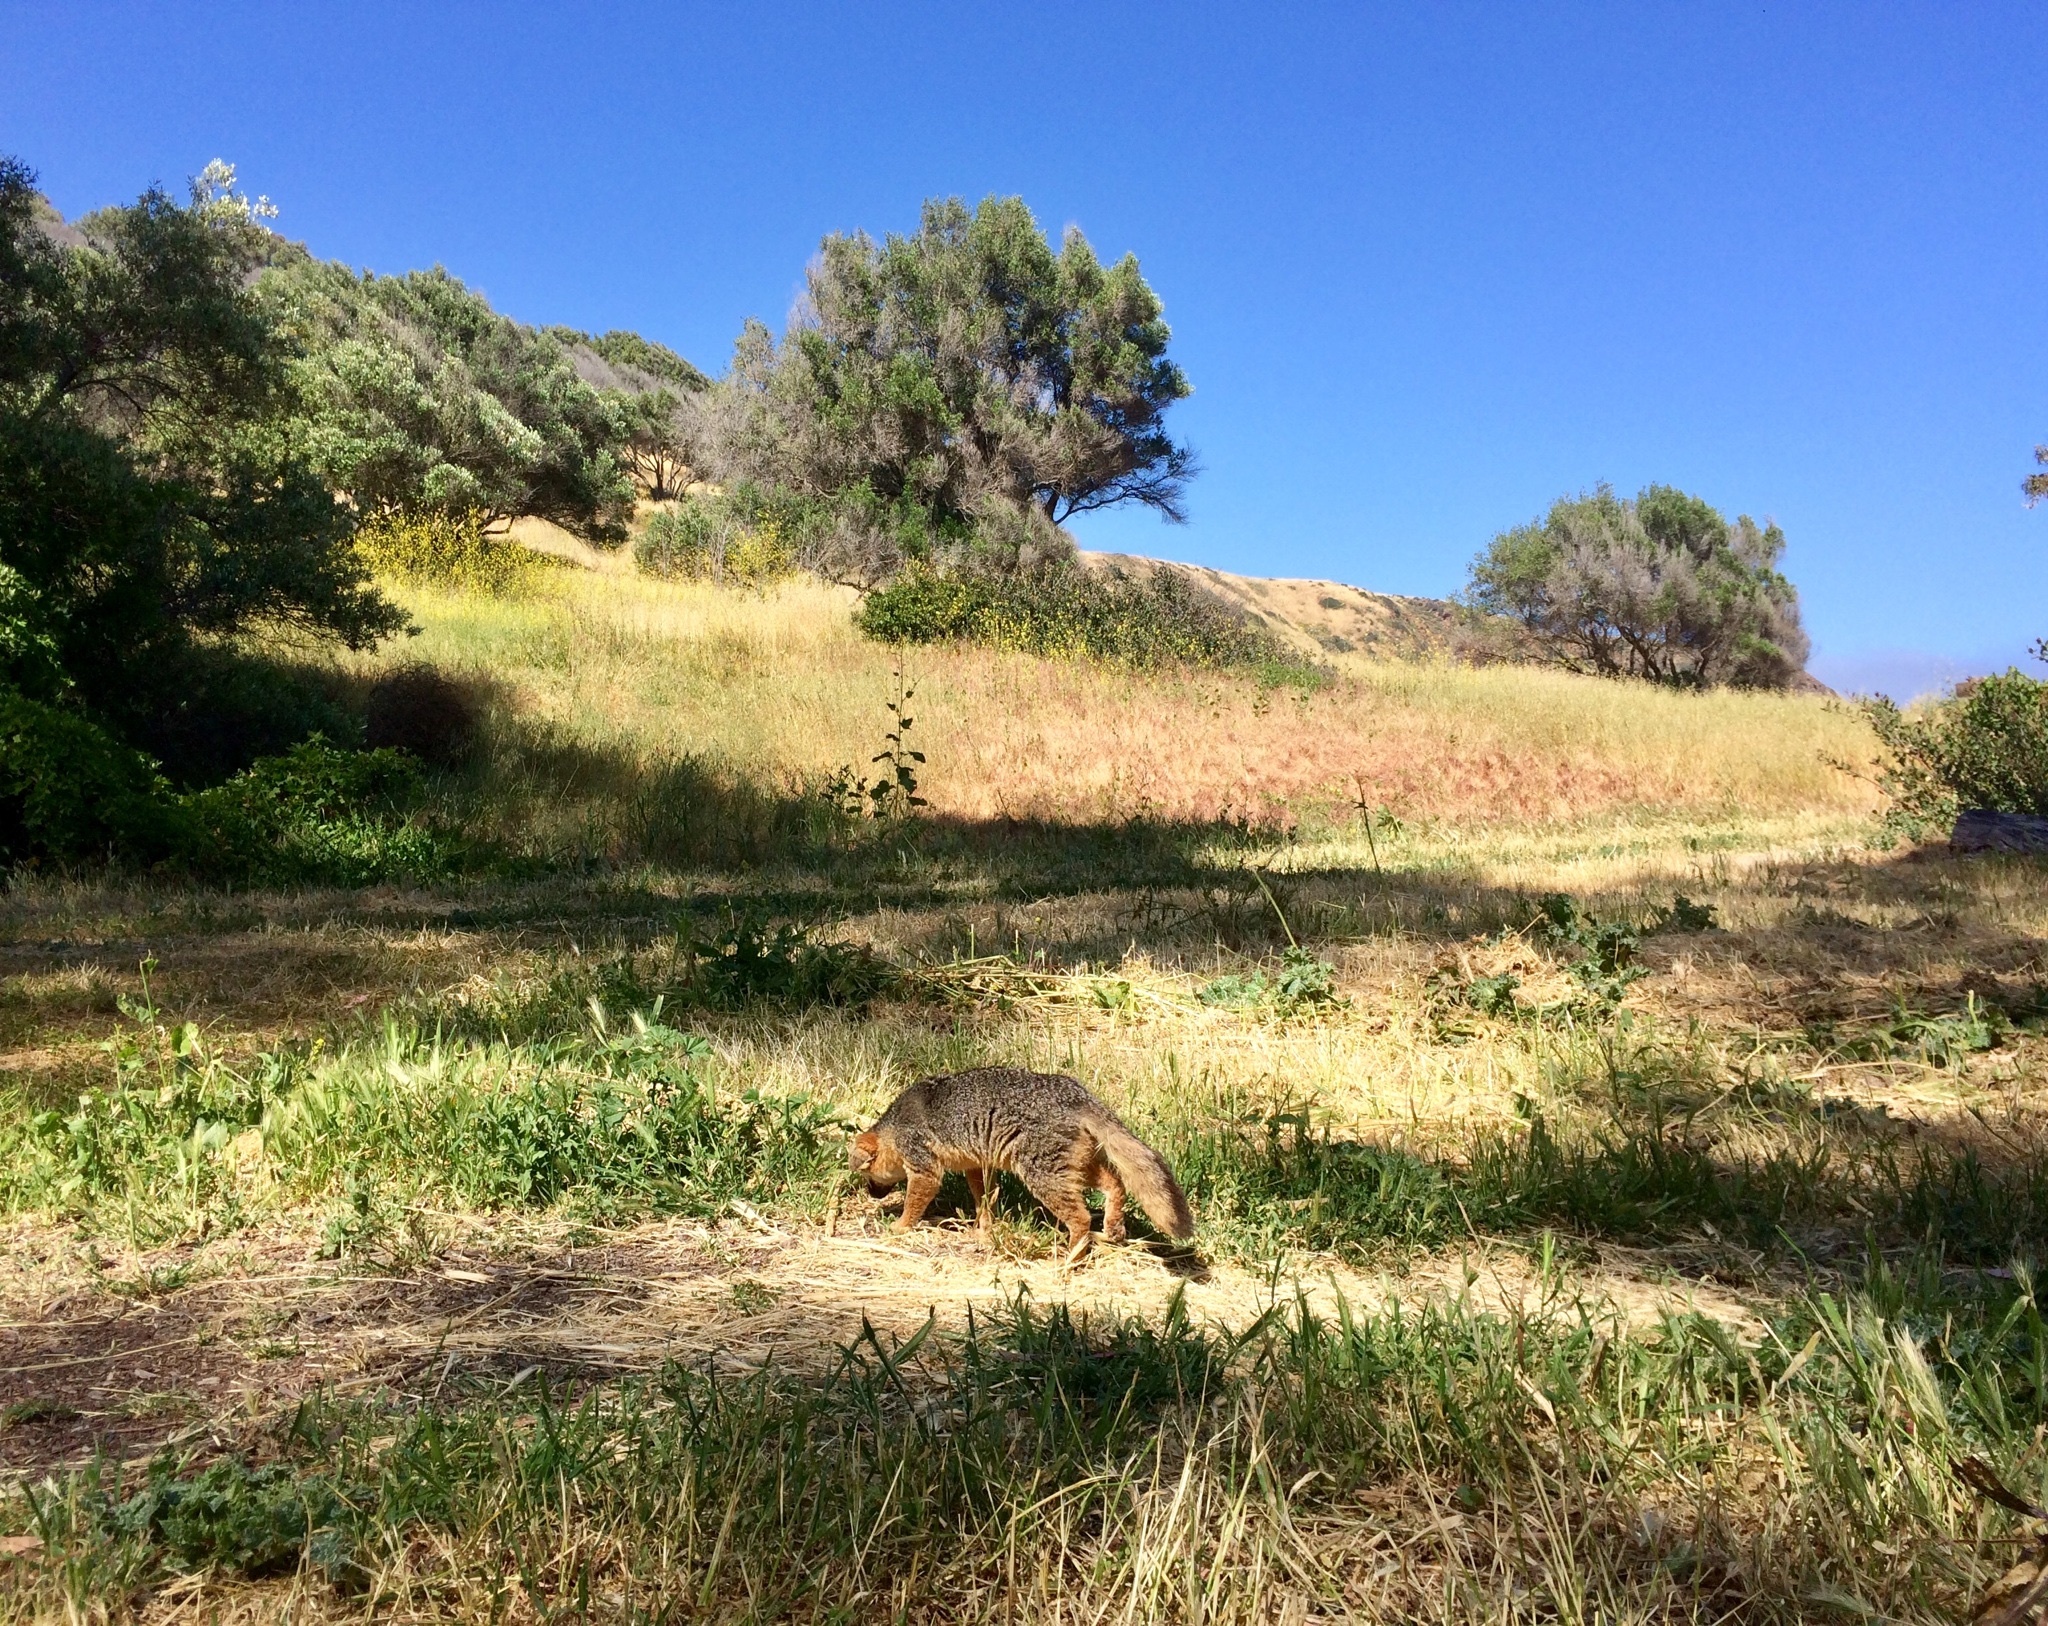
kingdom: Animalia
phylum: Chordata
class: Mammalia
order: Carnivora
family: Canidae
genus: Urocyon
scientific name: Urocyon littoralis
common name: Island gray fox
